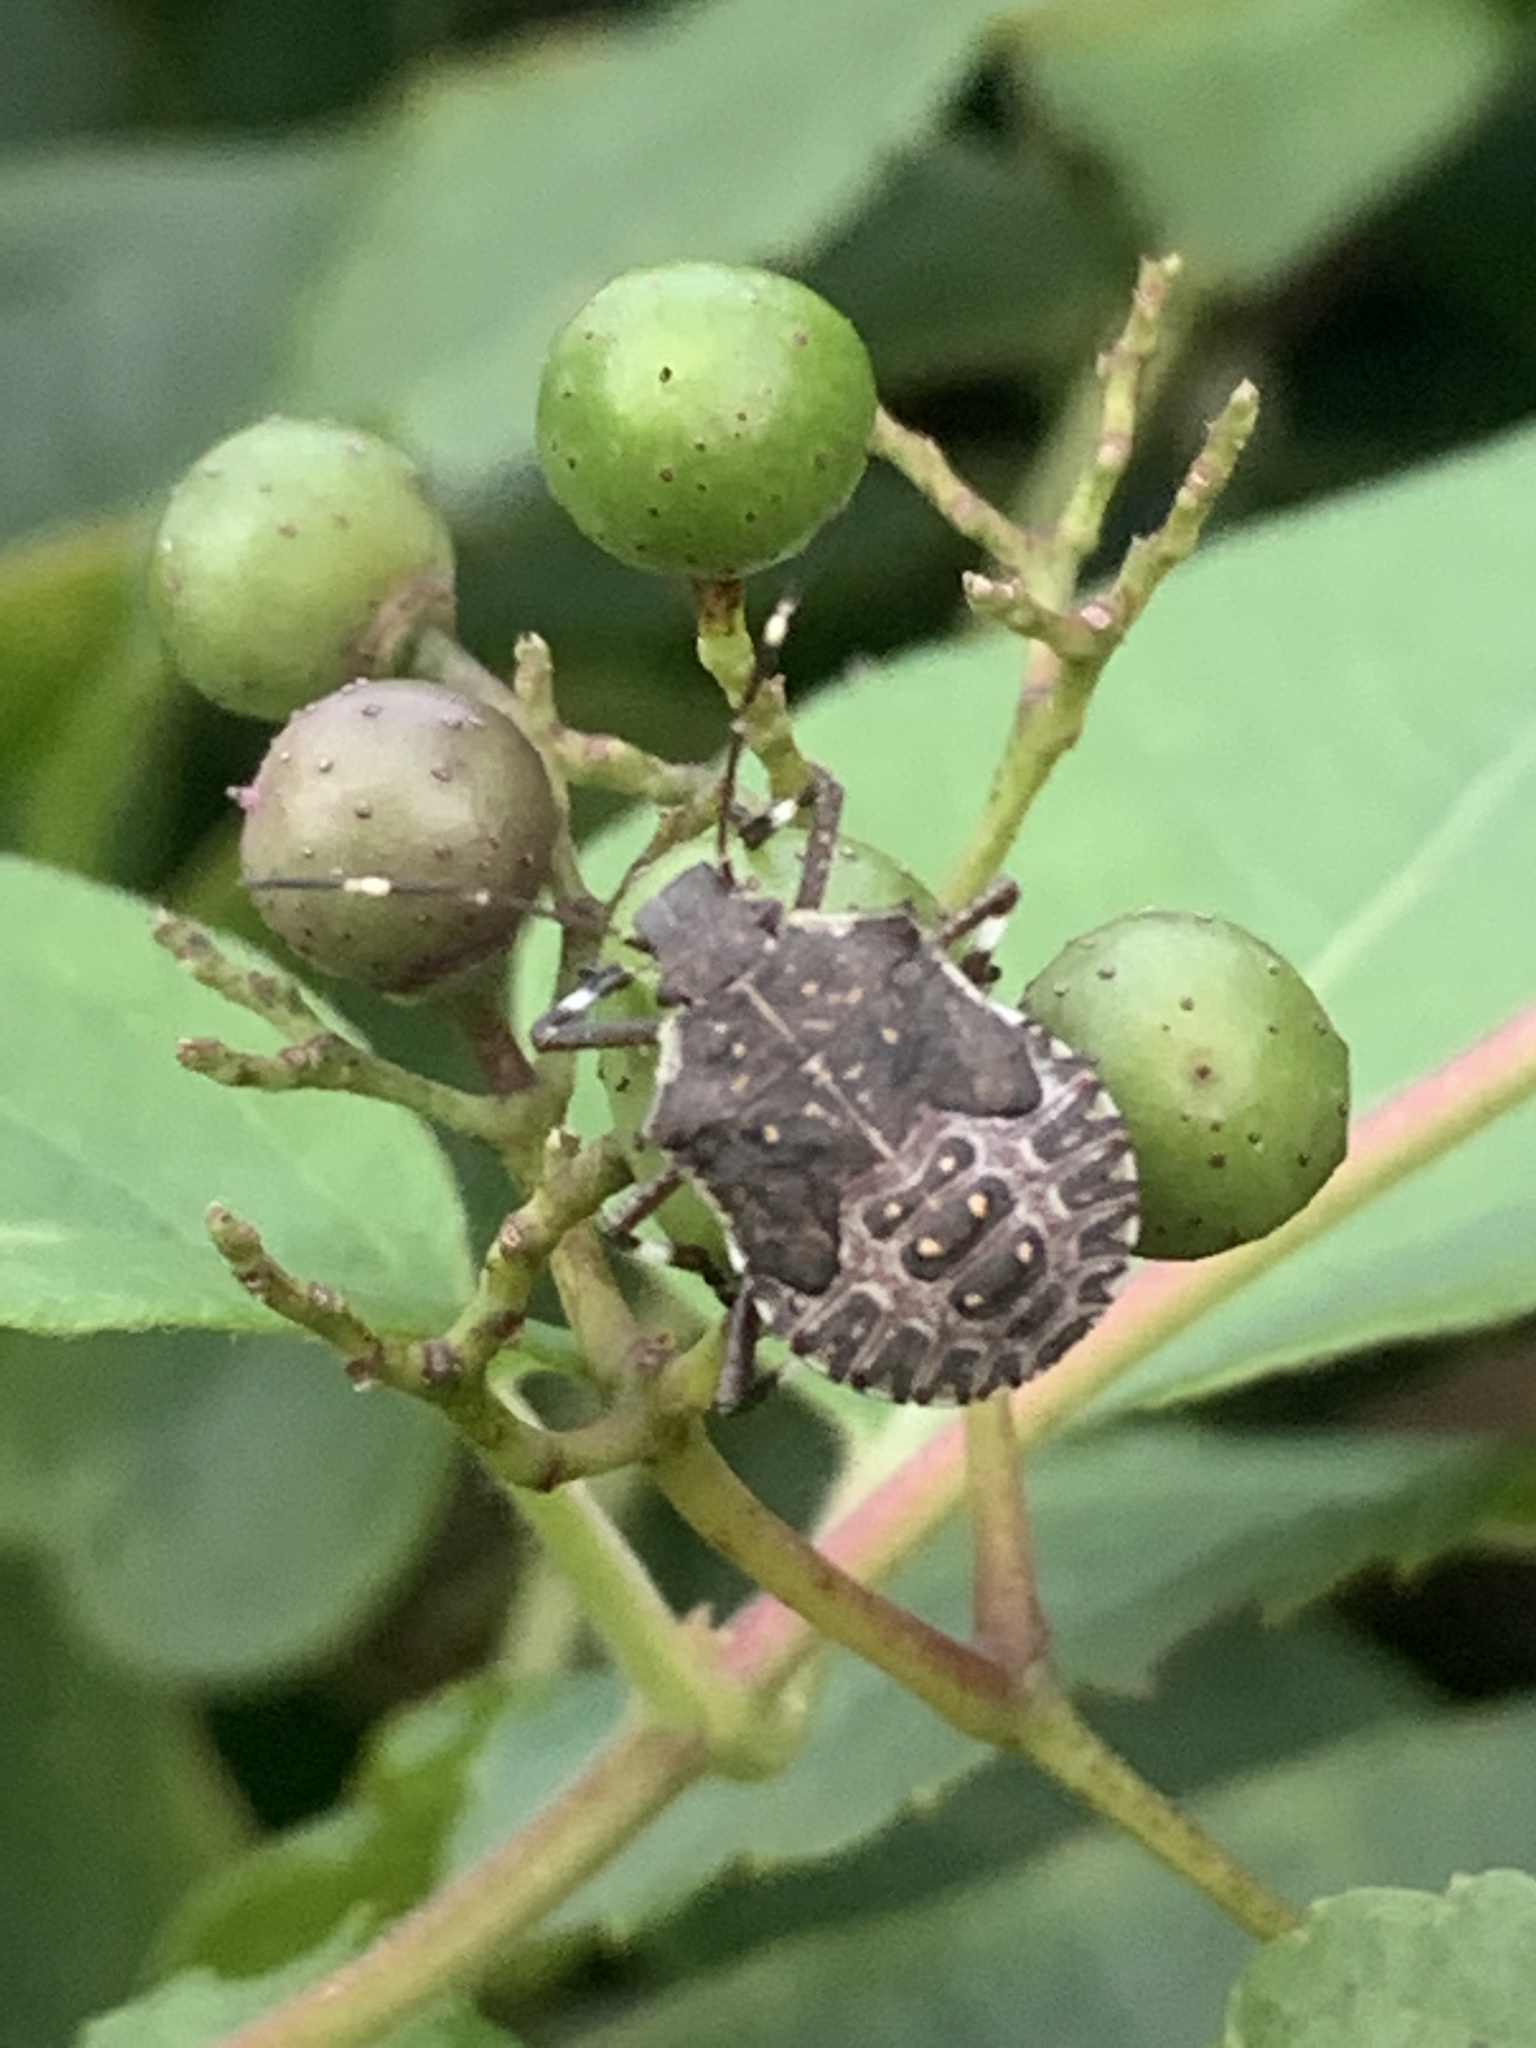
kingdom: Animalia
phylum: Arthropoda
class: Insecta
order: Hemiptera
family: Pentatomidae
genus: Halyomorpha
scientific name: Halyomorpha halys
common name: Brown marmorated stink bug
